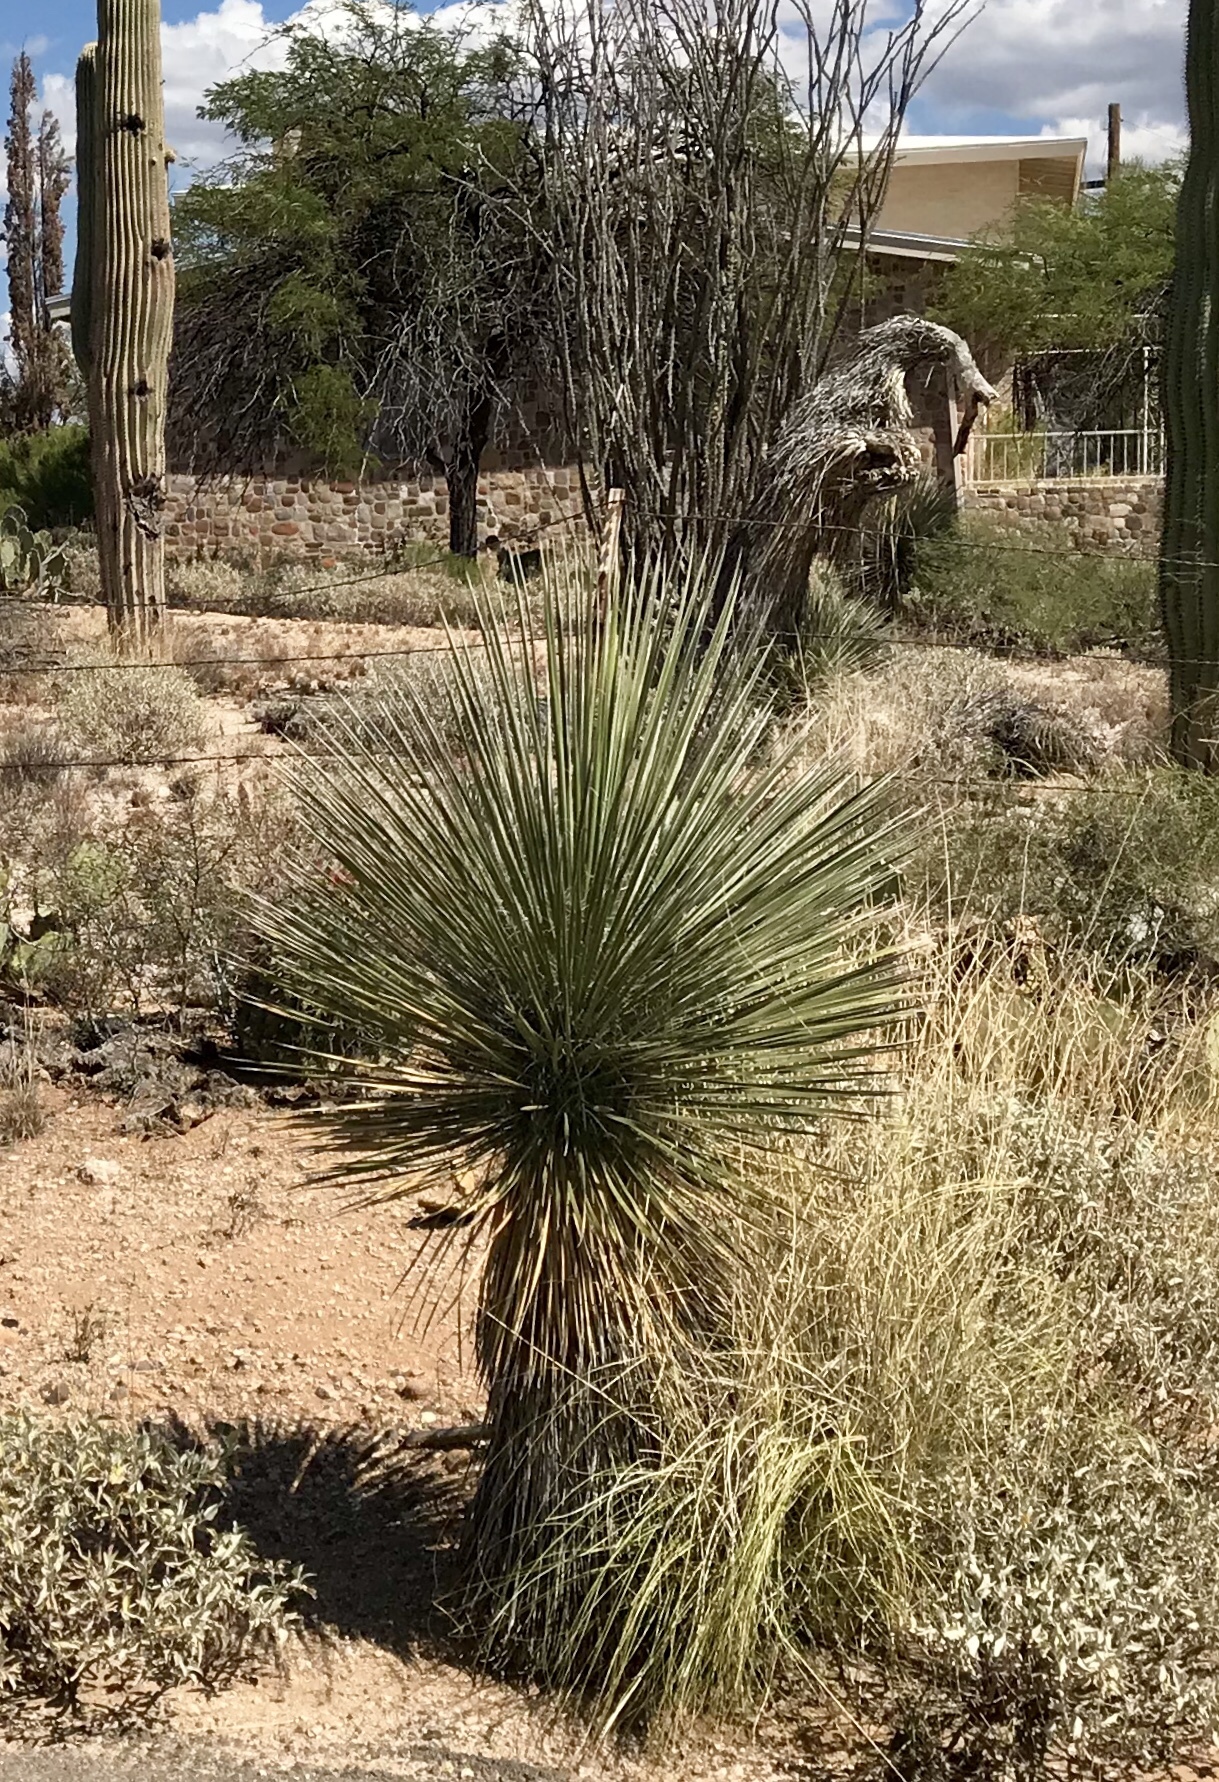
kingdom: Plantae
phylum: Tracheophyta
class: Liliopsida
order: Asparagales
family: Asparagaceae
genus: Yucca
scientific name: Yucca elata
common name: Palmella
